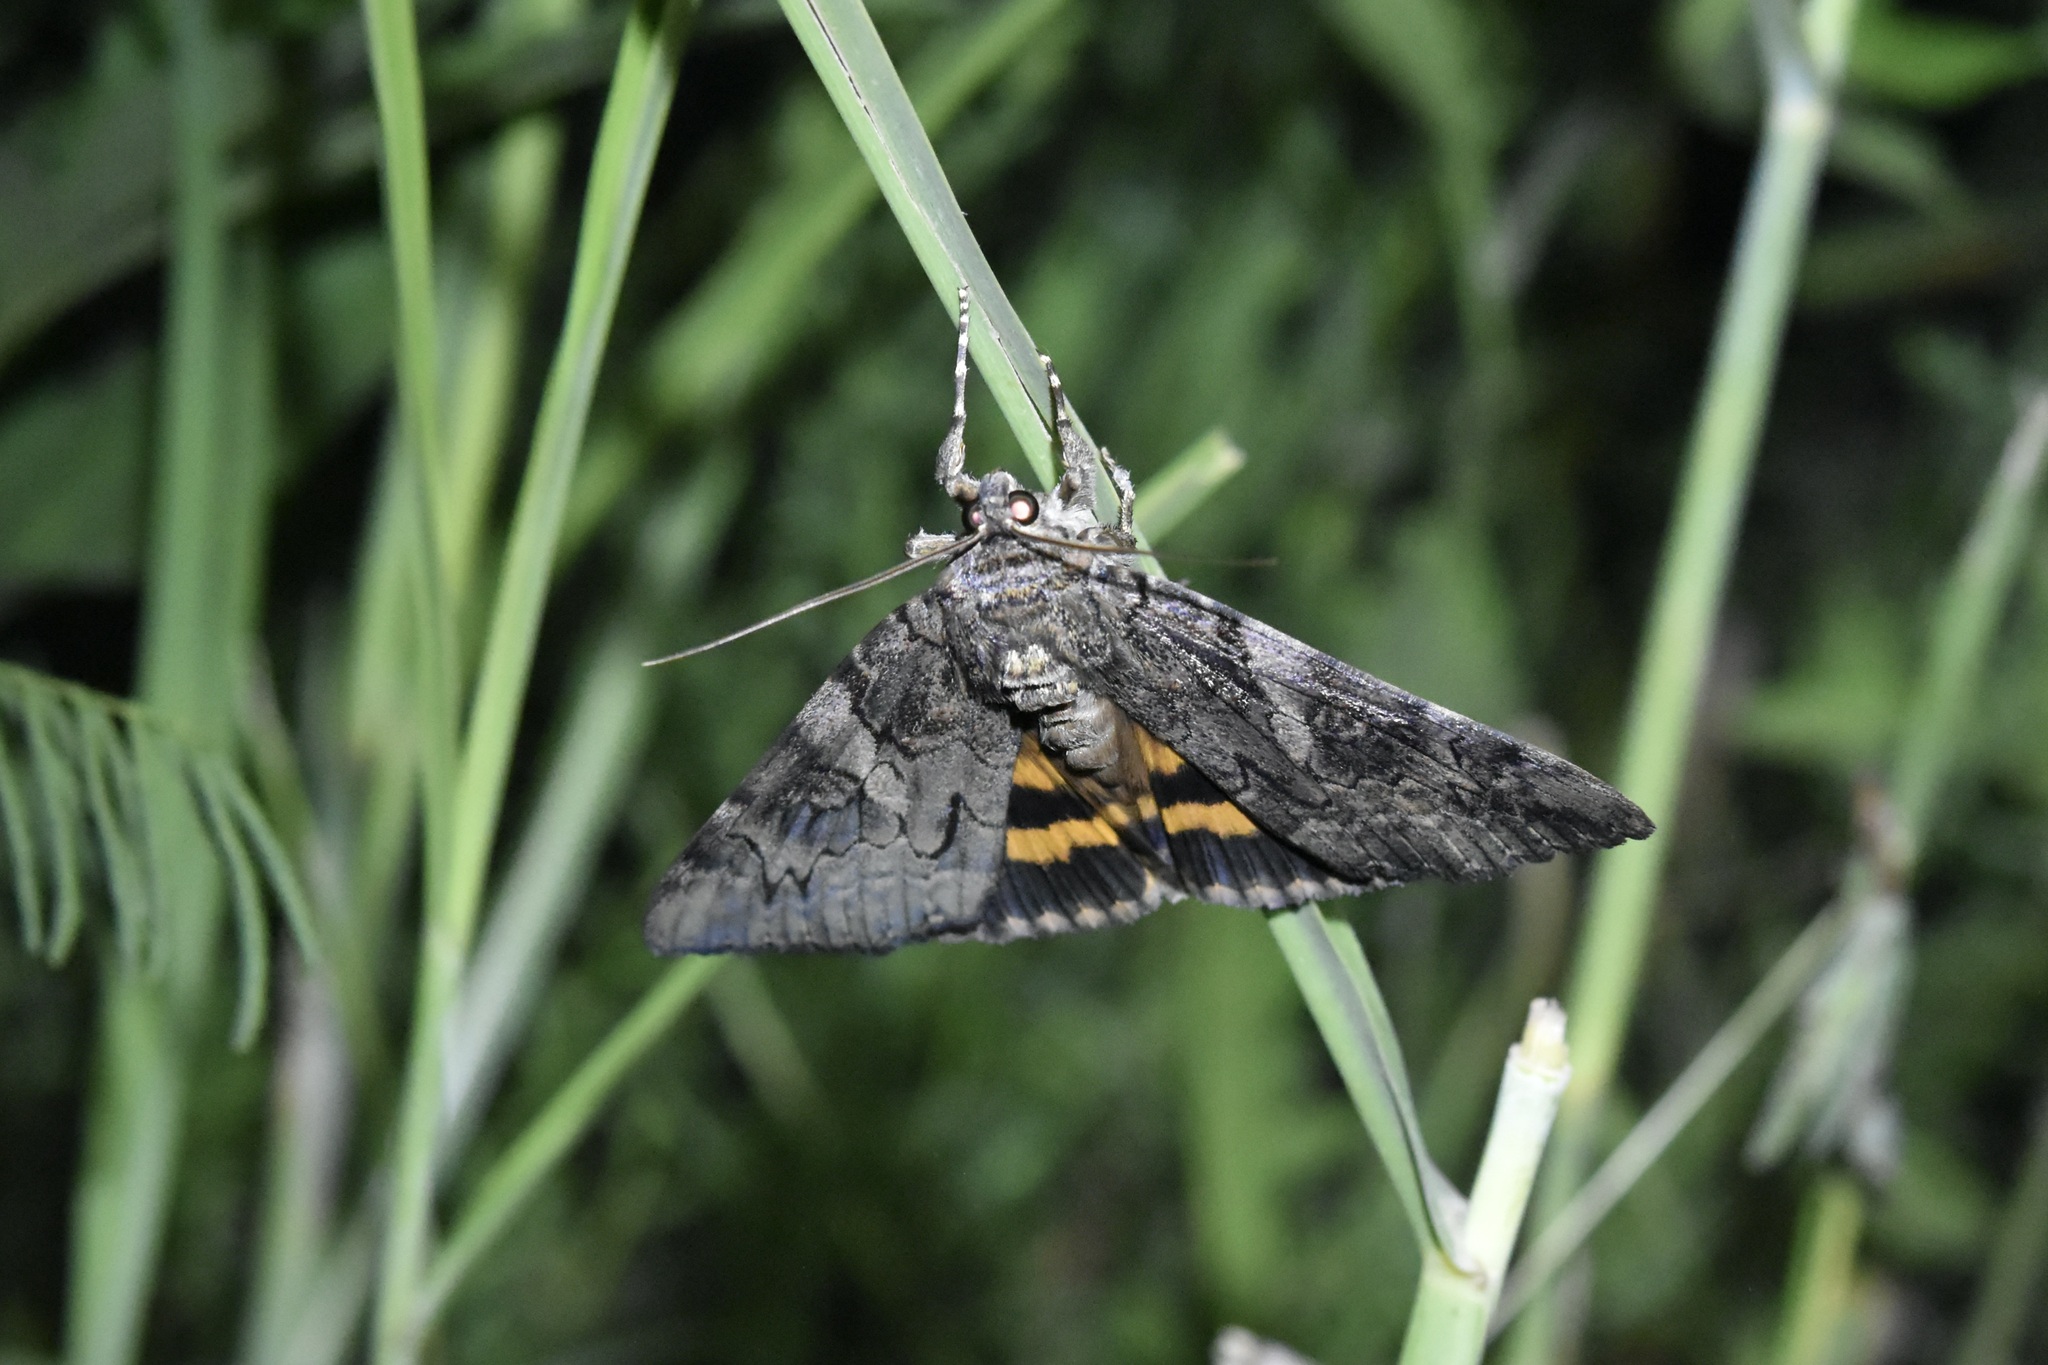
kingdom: Animalia
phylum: Arthropoda
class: Insecta
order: Lepidoptera
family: Erebidae
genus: Catocala
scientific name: Catocala piatrix
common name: The penitent underwing
